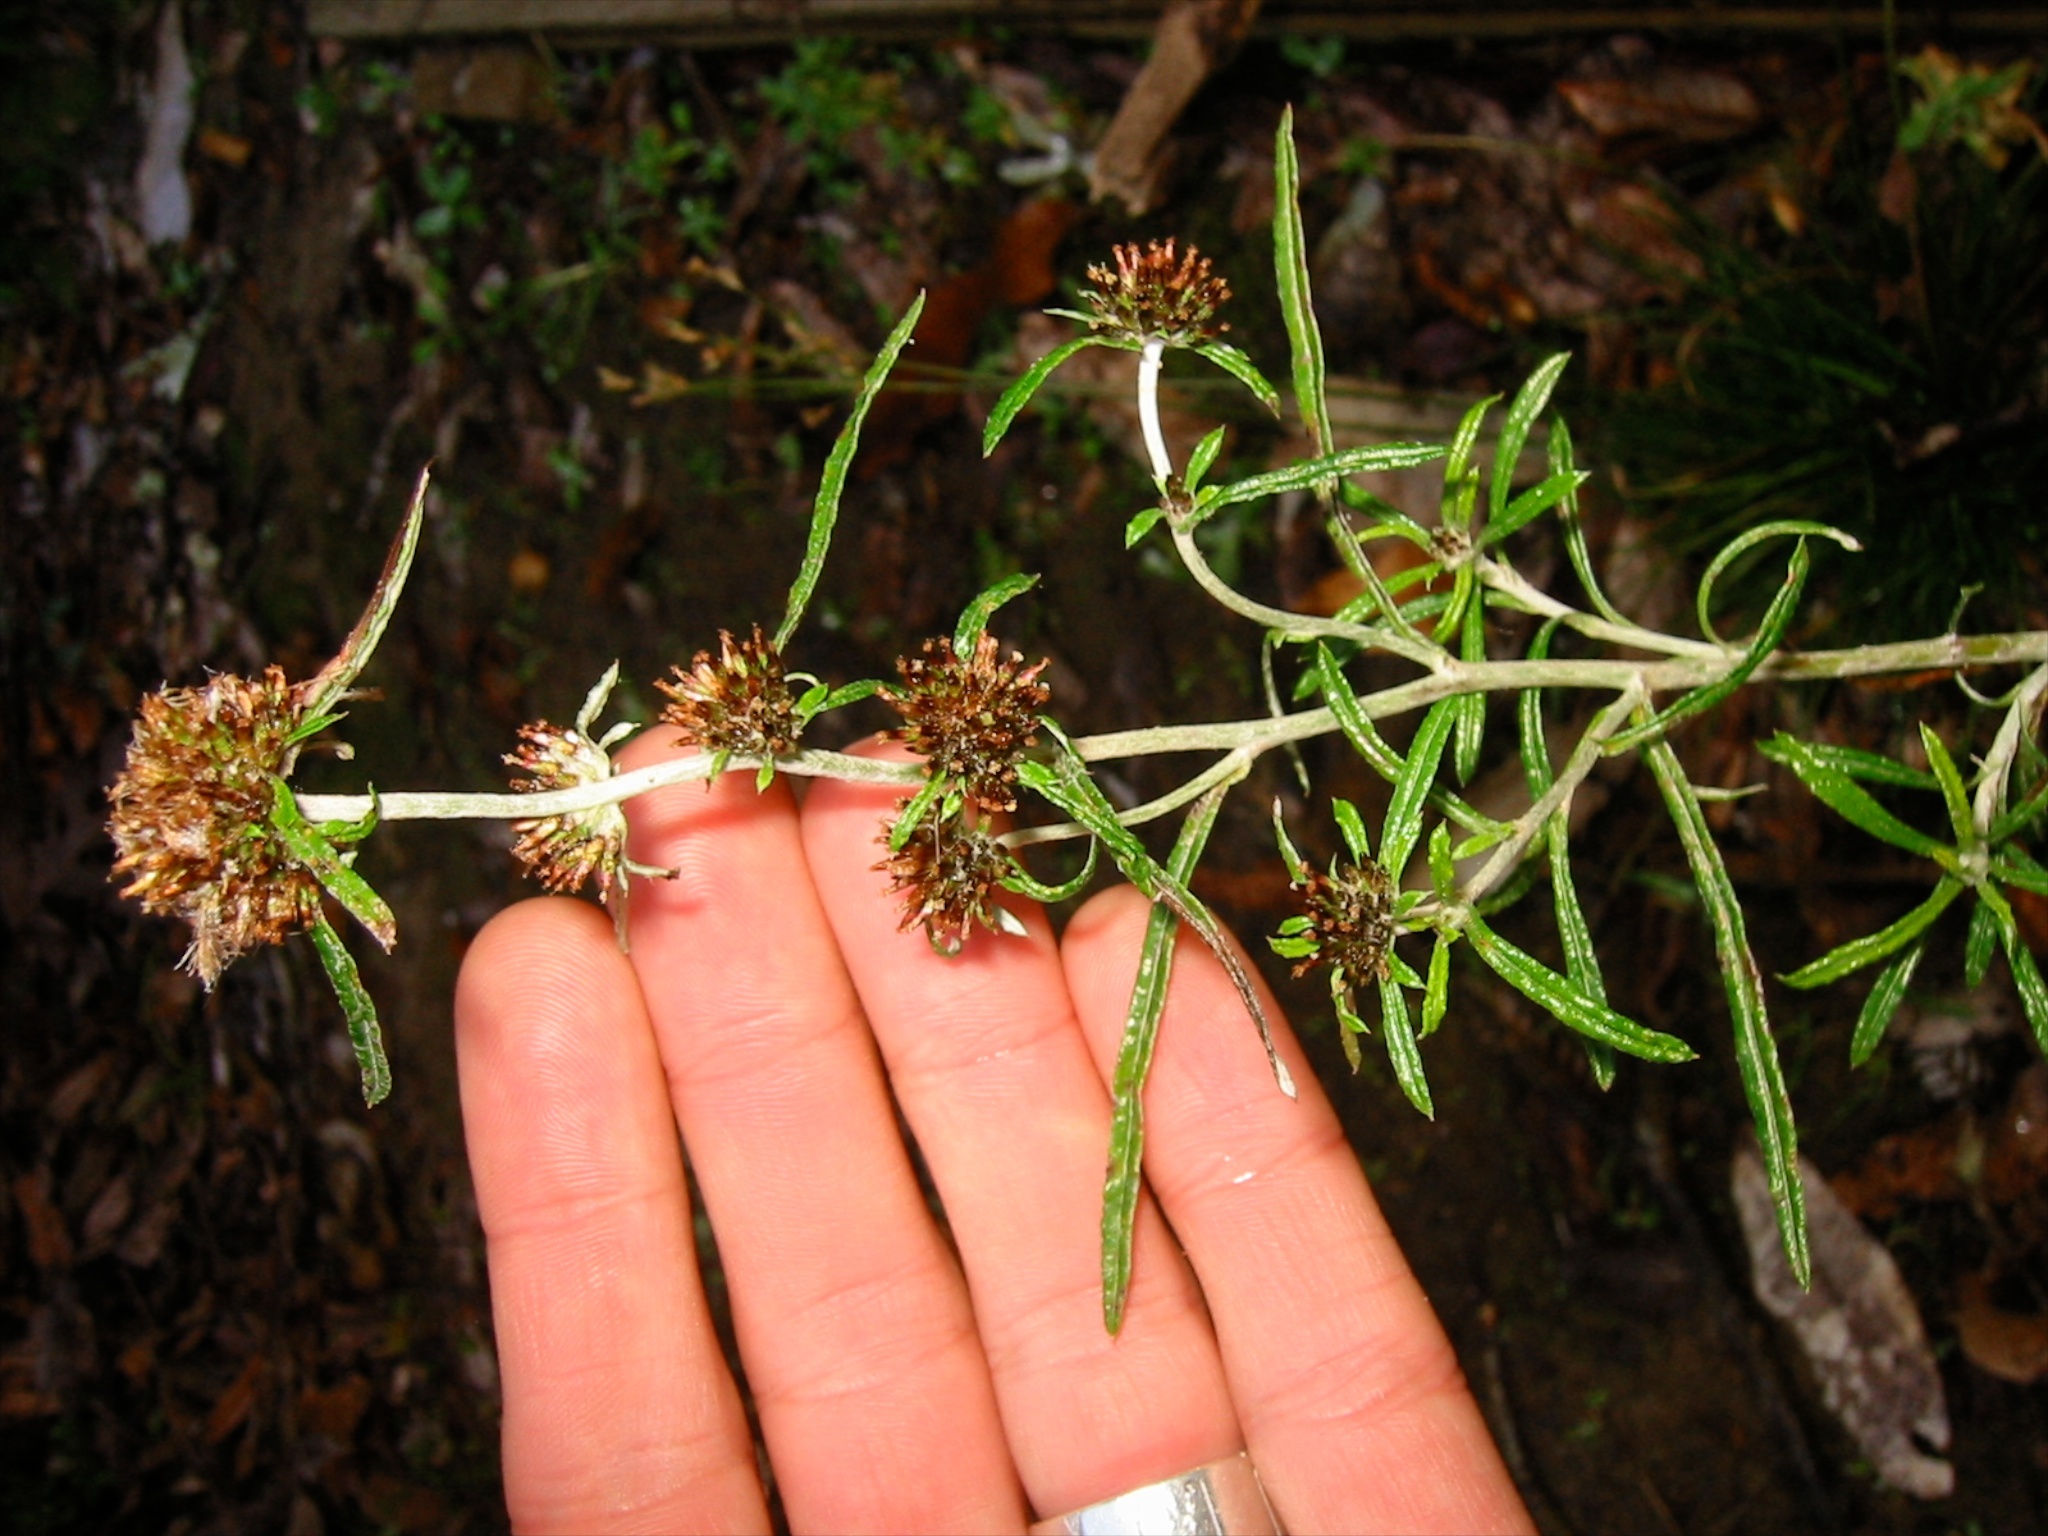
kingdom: Plantae
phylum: Tracheophyta
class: Magnoliopsida
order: Asterales
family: Asteraceae
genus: Euchiton
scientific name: Euchiton sphaericus
